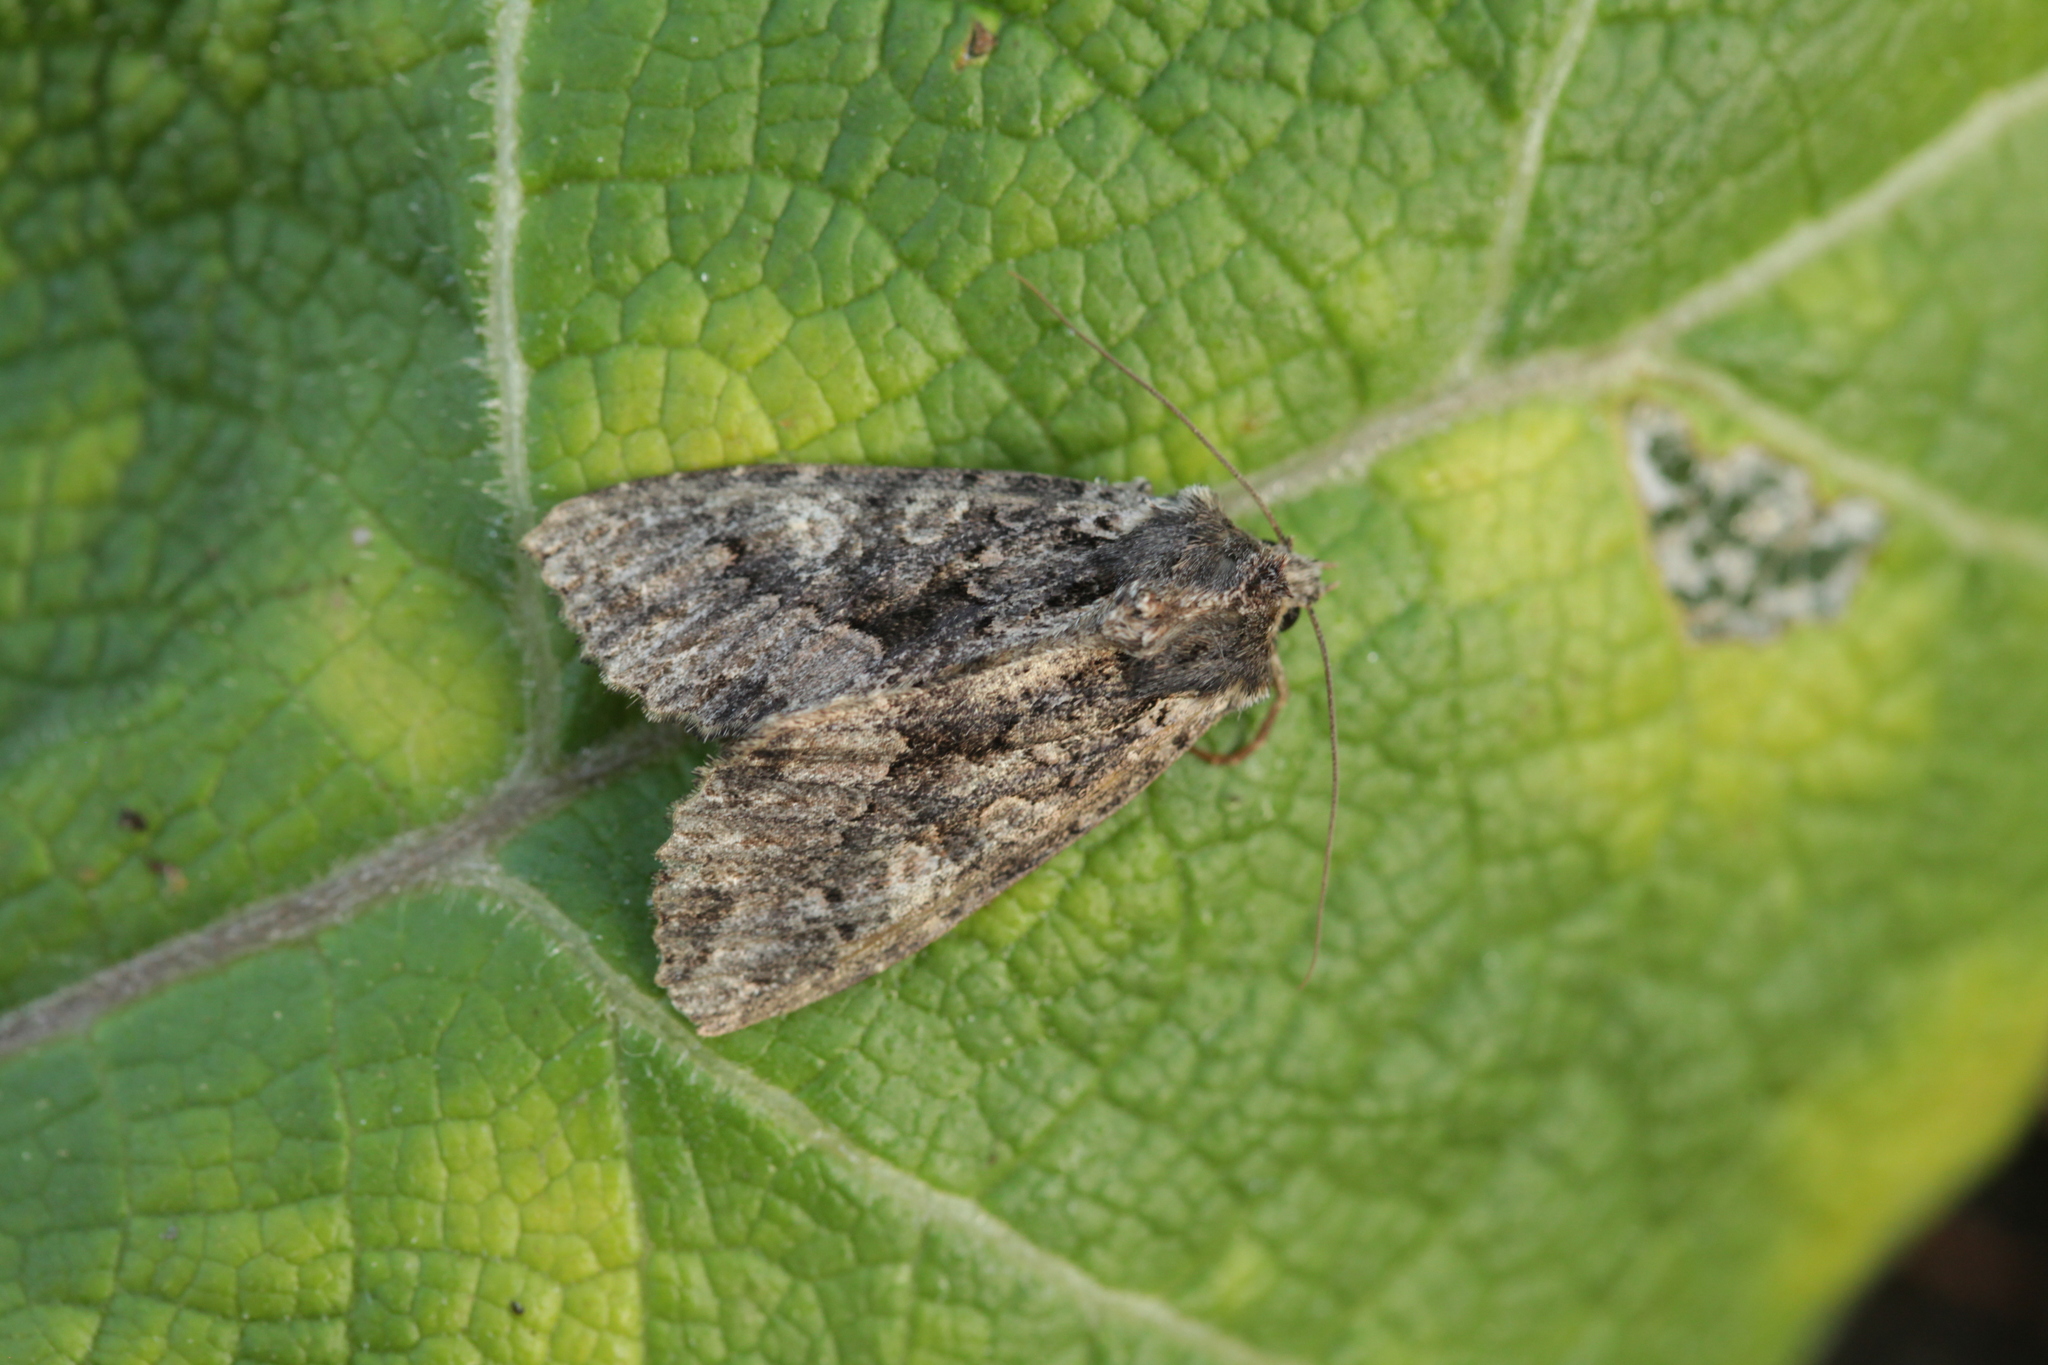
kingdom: Animalia
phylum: Arthropoda
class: Insecta
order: Lepidoptera
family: Noctuidae
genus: Mniotype
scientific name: Mniotype satura
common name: Beautiful arches
